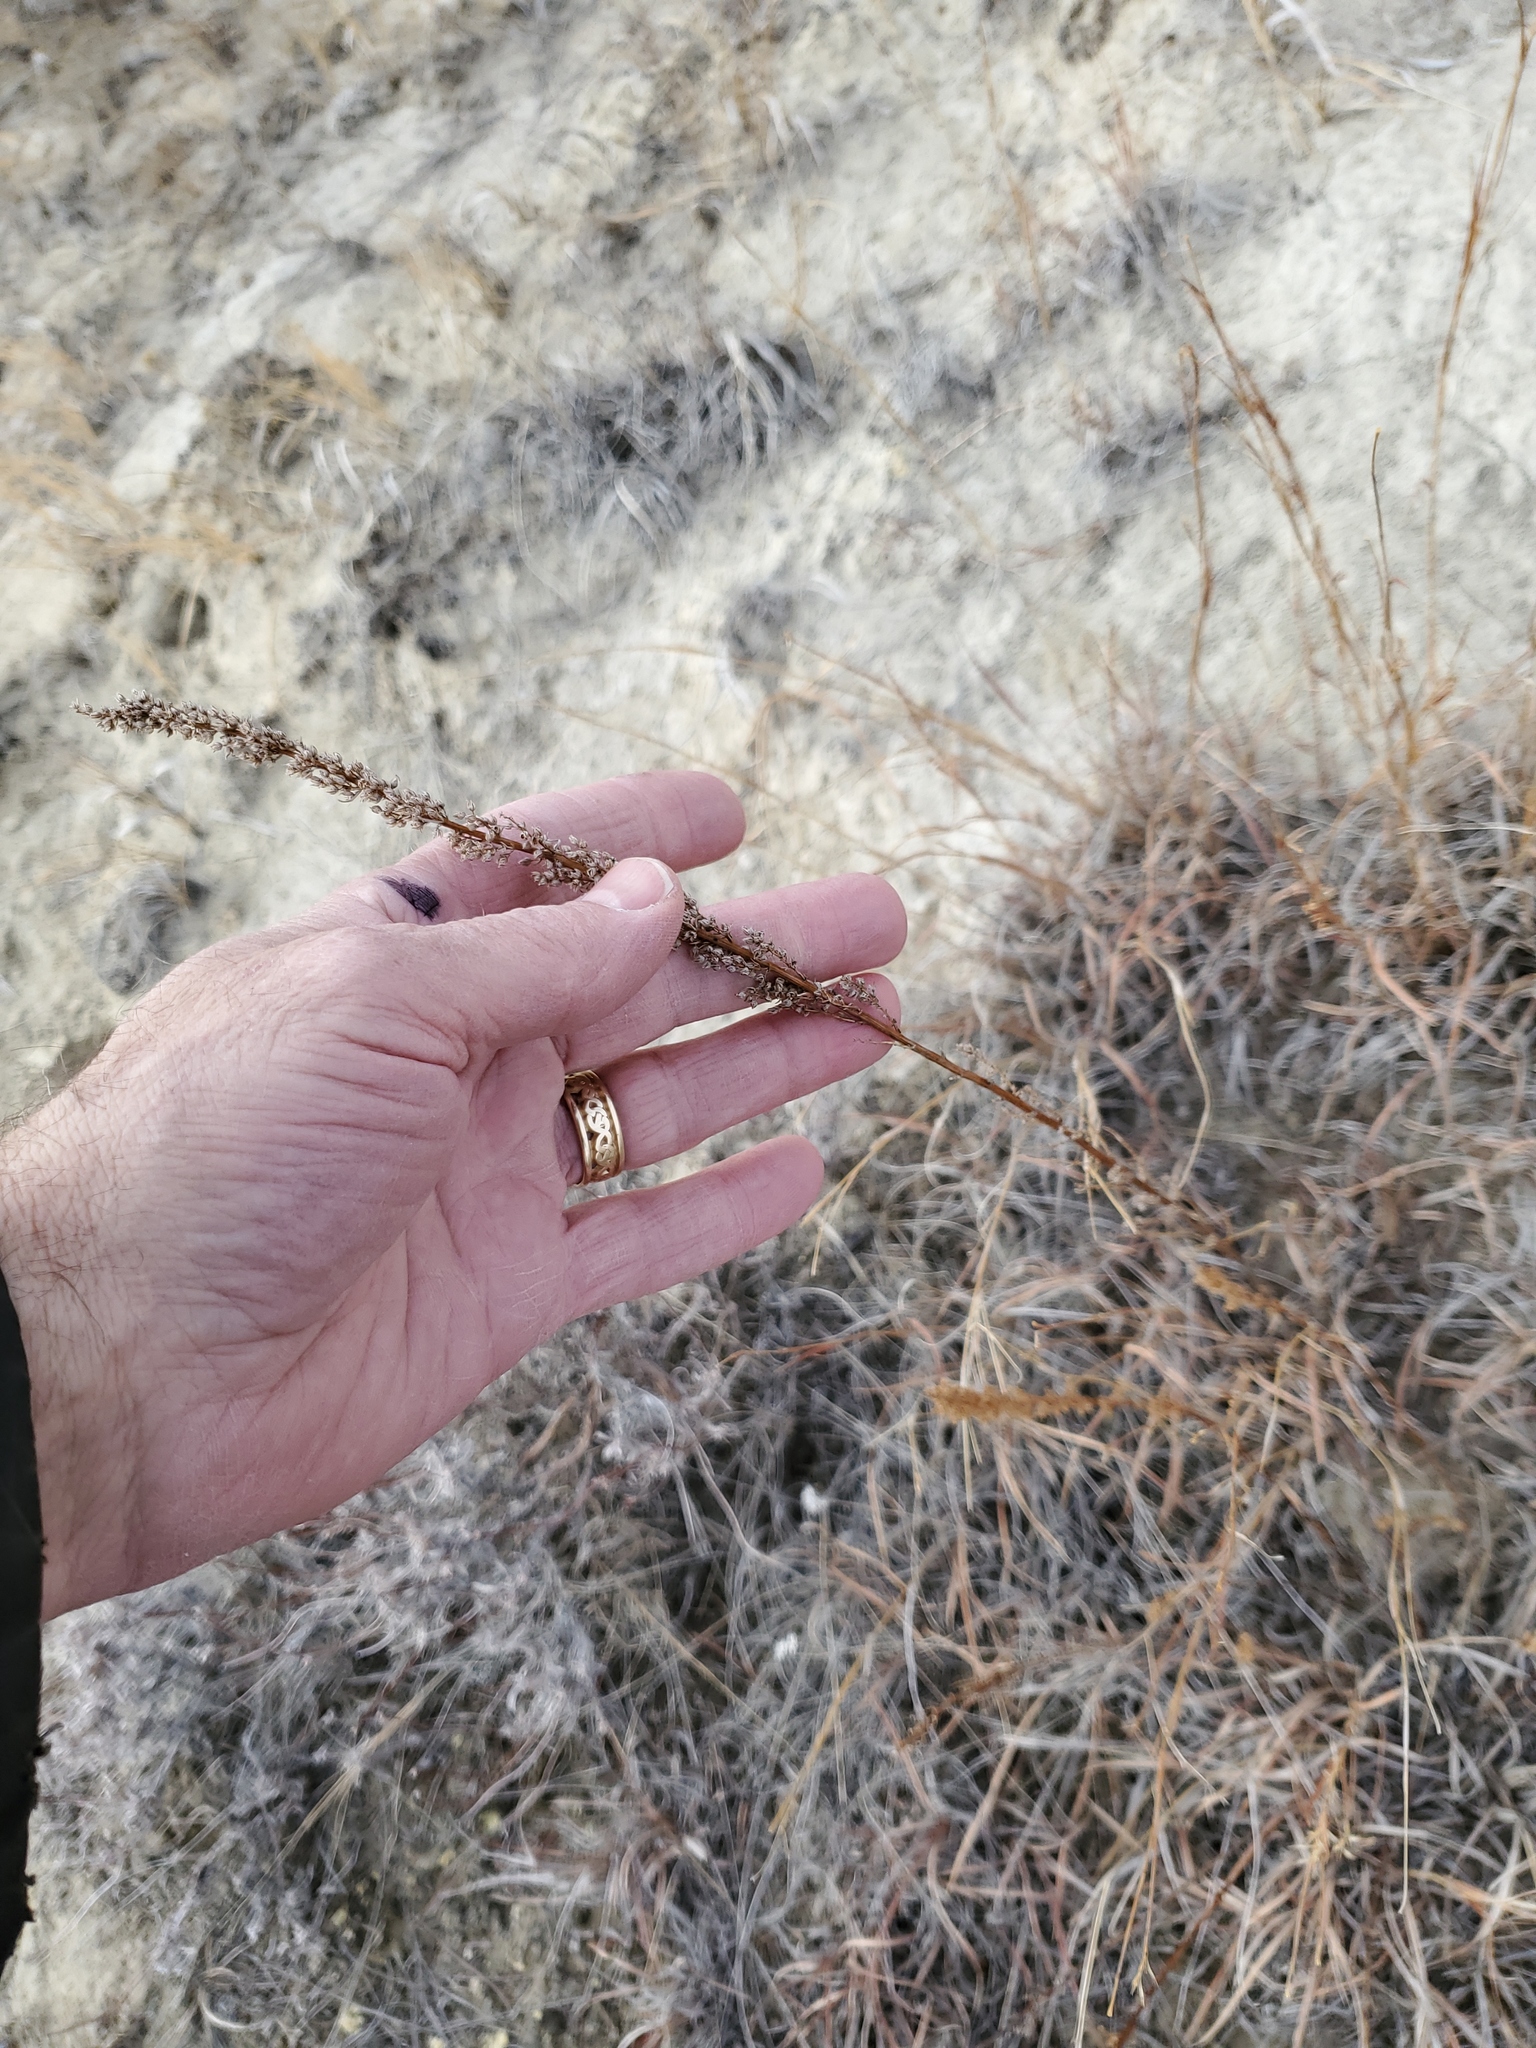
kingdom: Plantae
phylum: Tracheophyta
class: Magnoliopsida
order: Asterales
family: Asteraceae
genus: Artemisia
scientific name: Artemisia campestris
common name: Field wormwood
